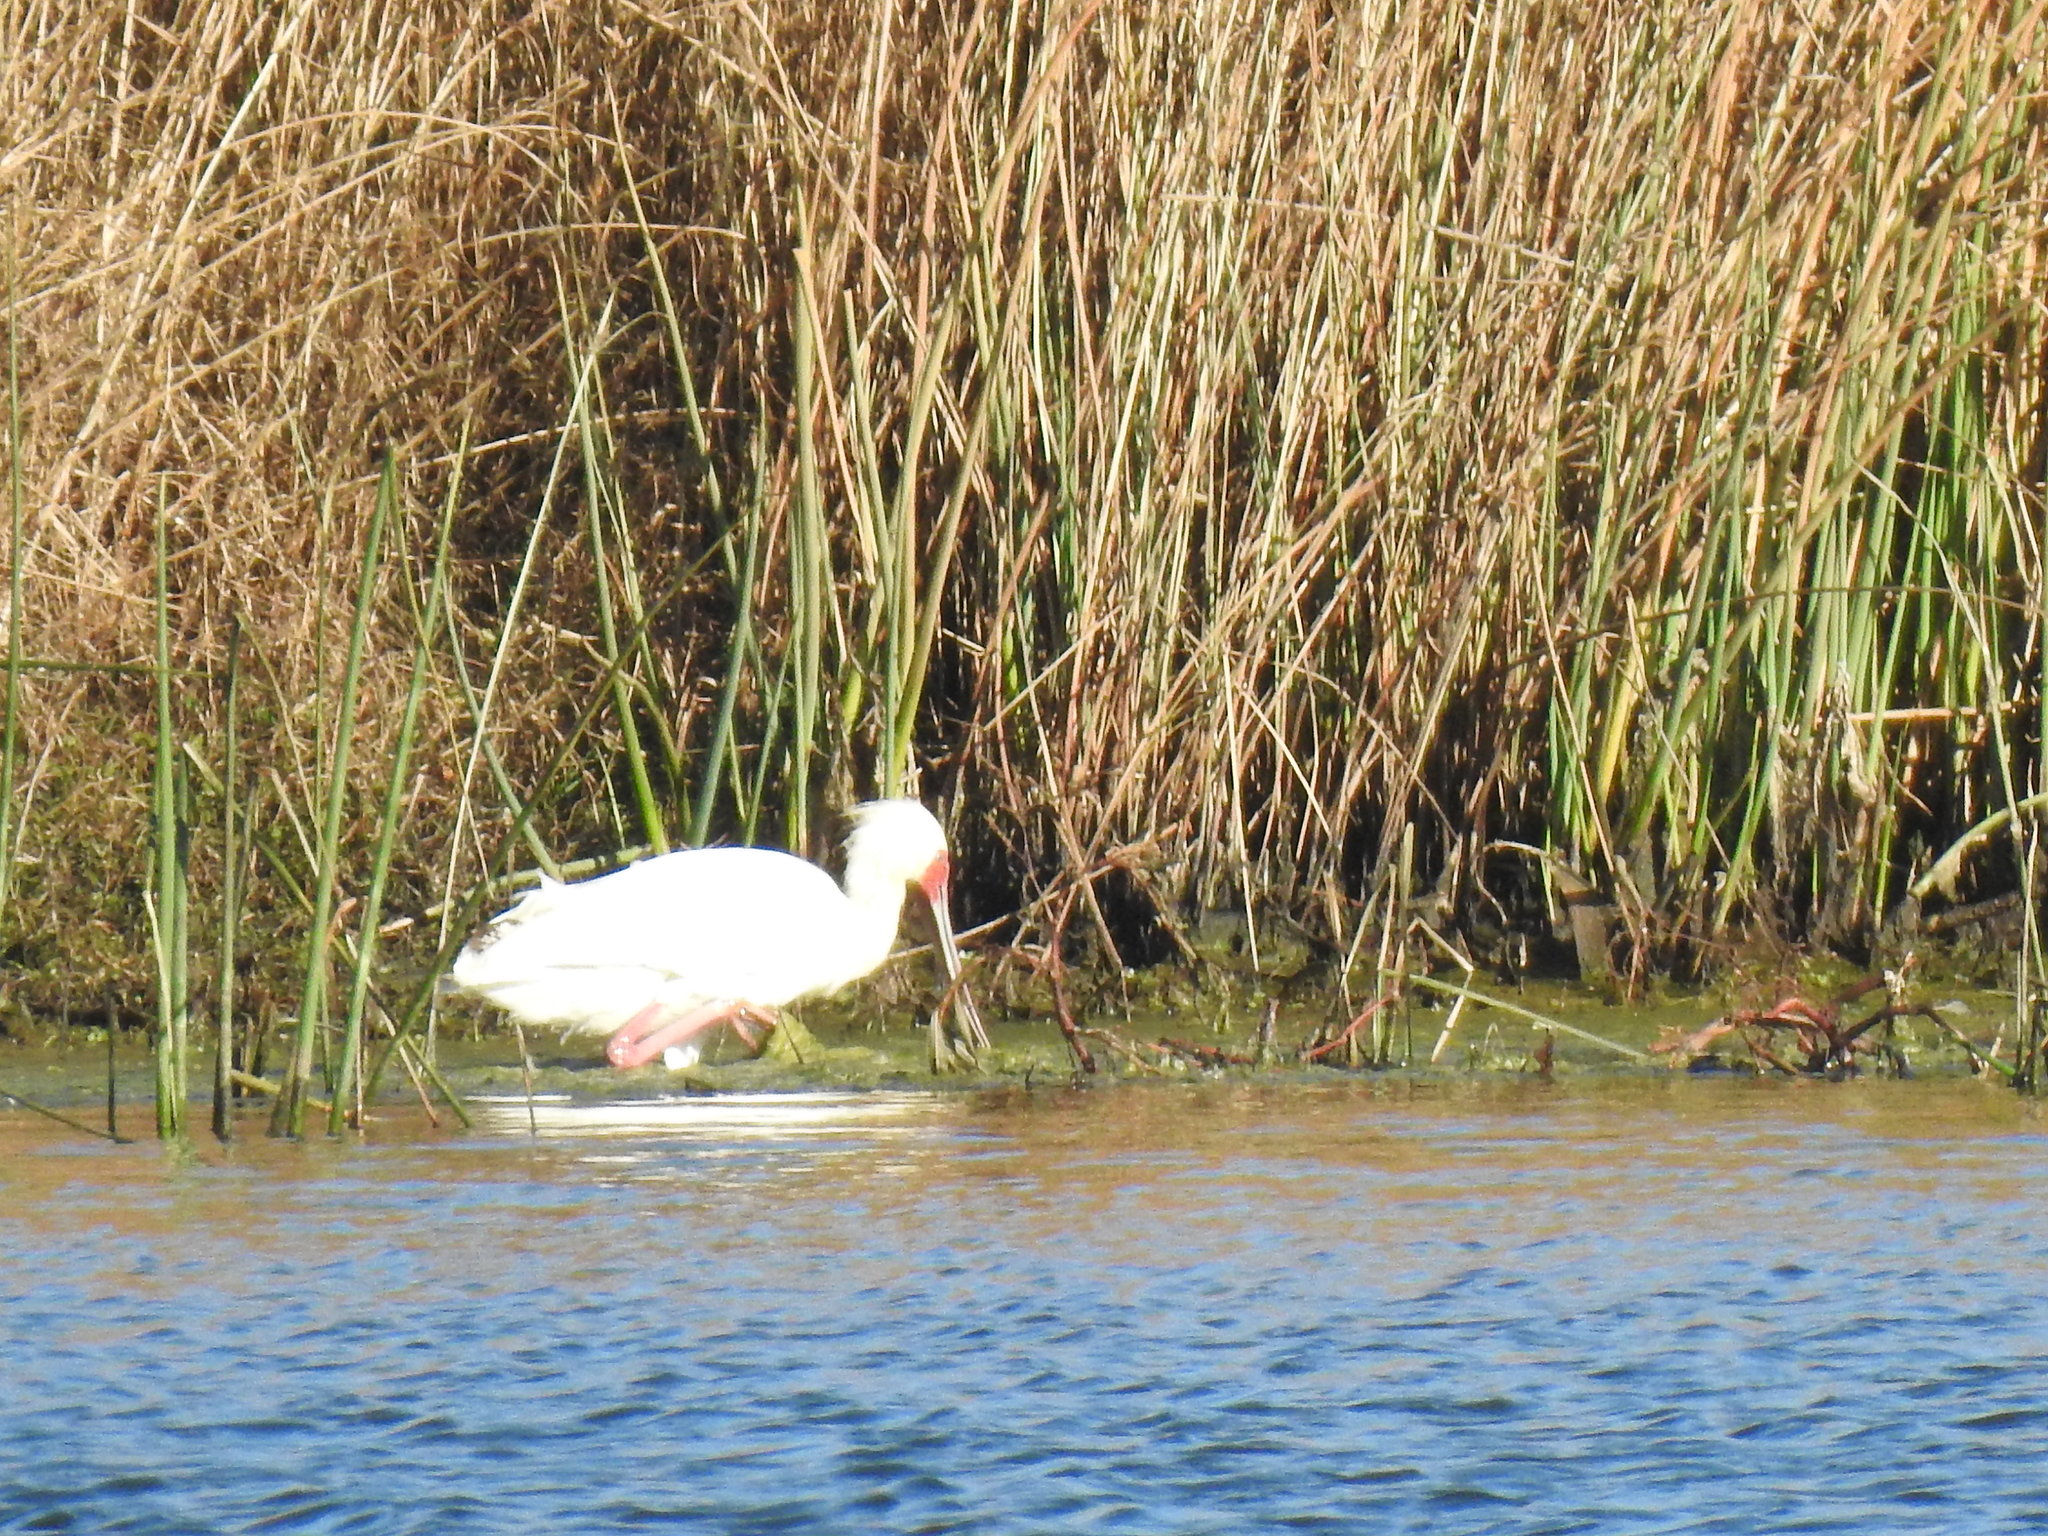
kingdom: Animalia
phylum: Chordata
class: Aves
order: Pelecaniformes
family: Threskiornithidae
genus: Platalea
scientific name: Platalea alba
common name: African spoonbill
